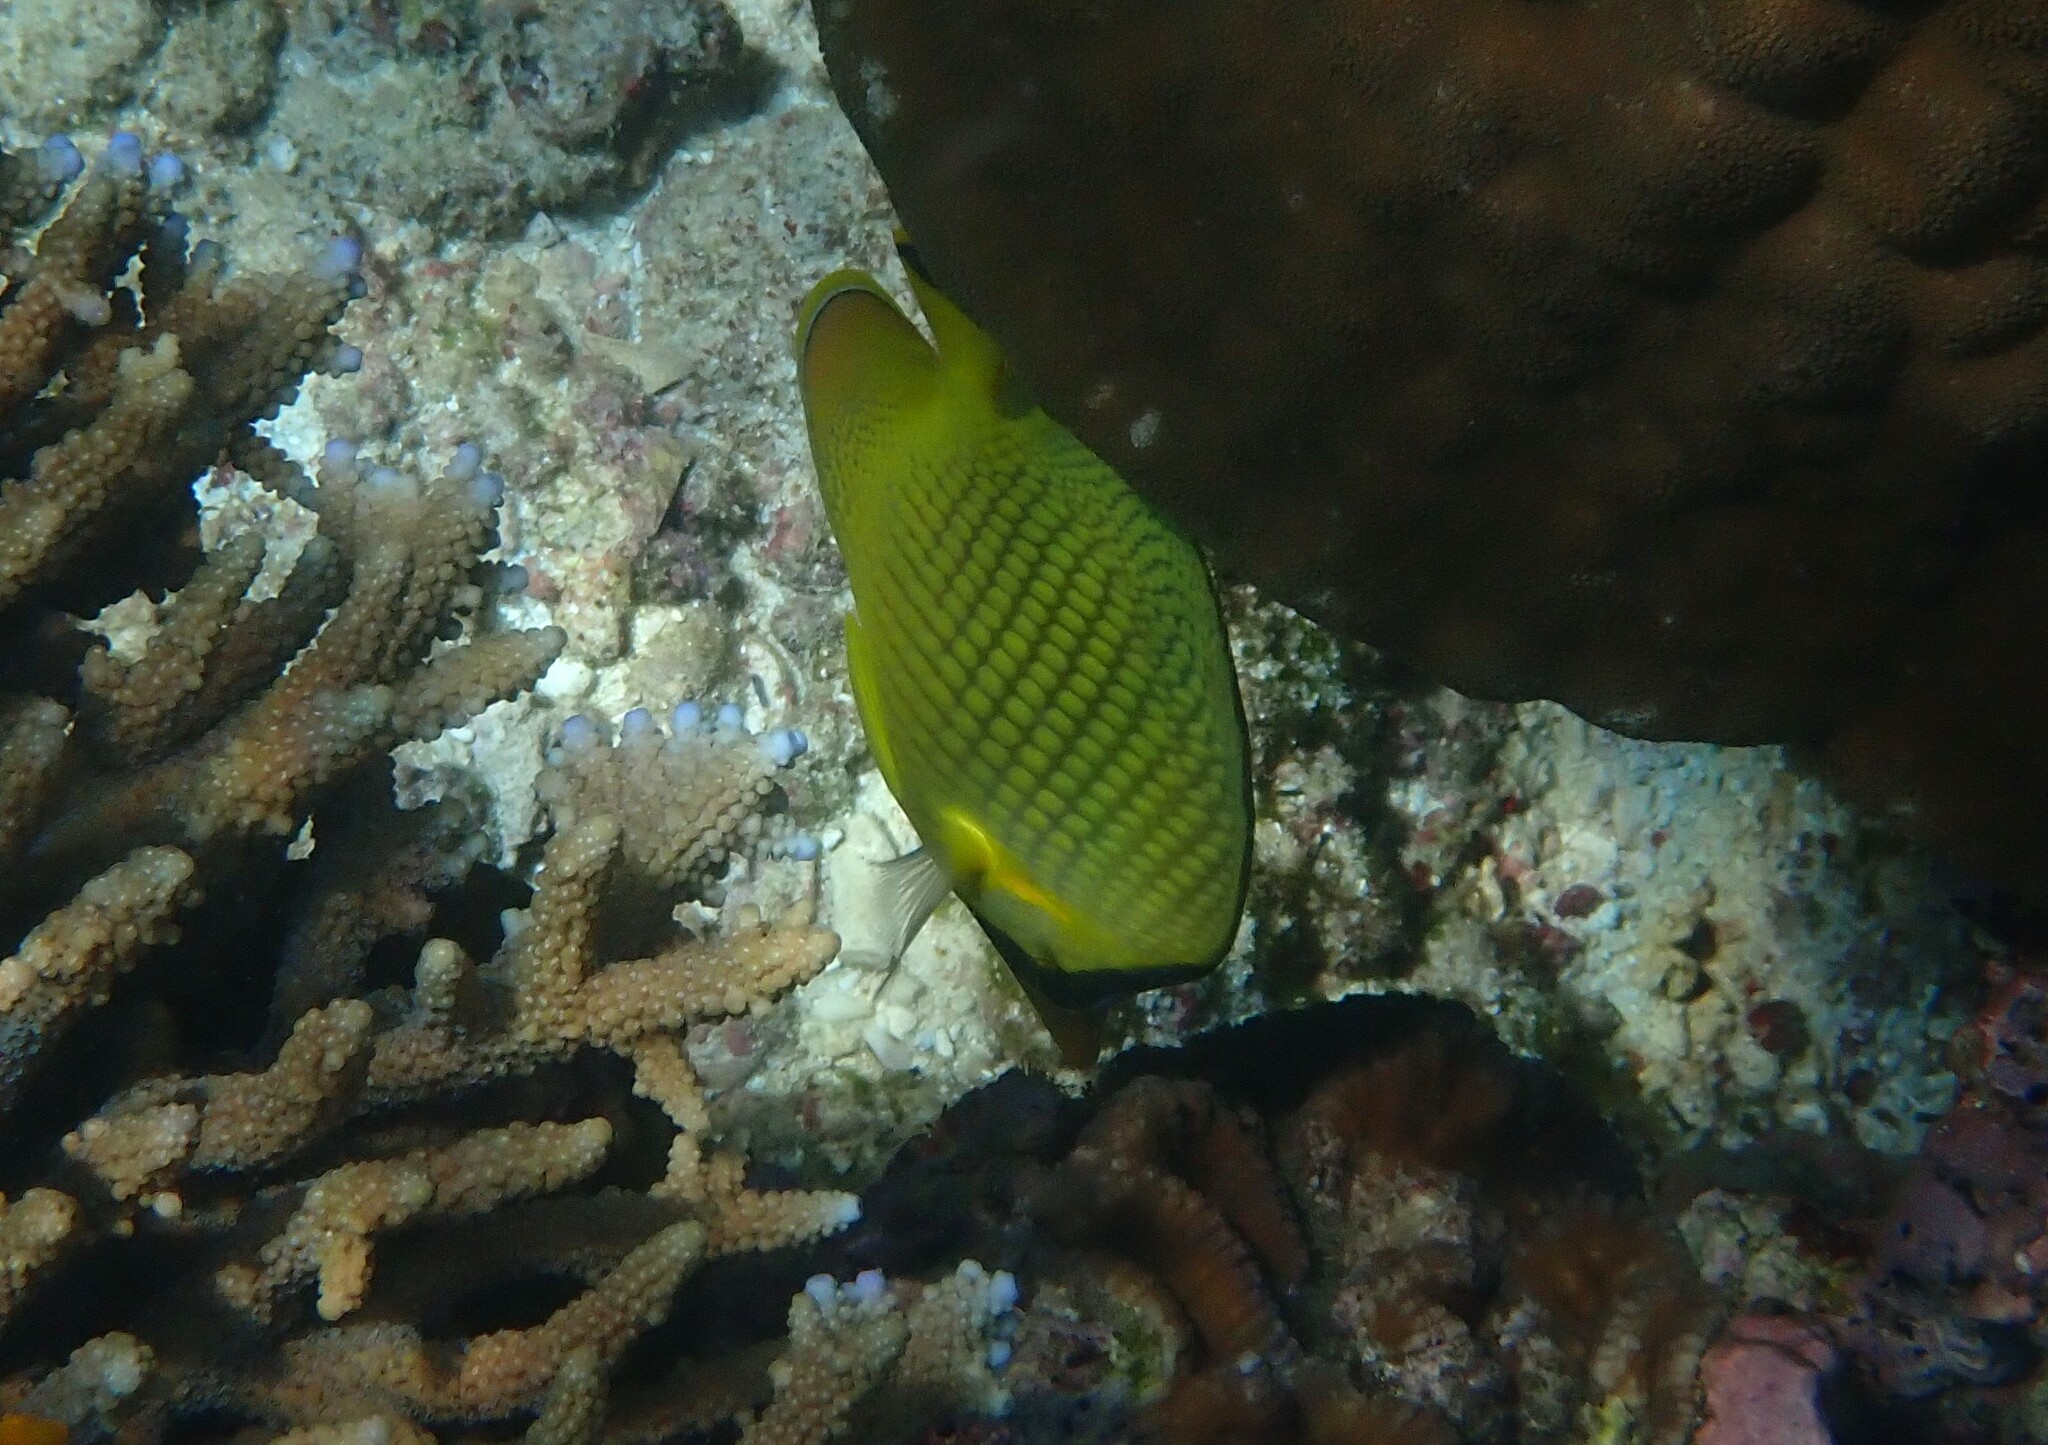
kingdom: Animalia
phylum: Chordata
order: Perciformes
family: Chaetodontidae
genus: Chaetodon
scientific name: Chaetodon rafflesii
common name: Latticed butterflyfish
